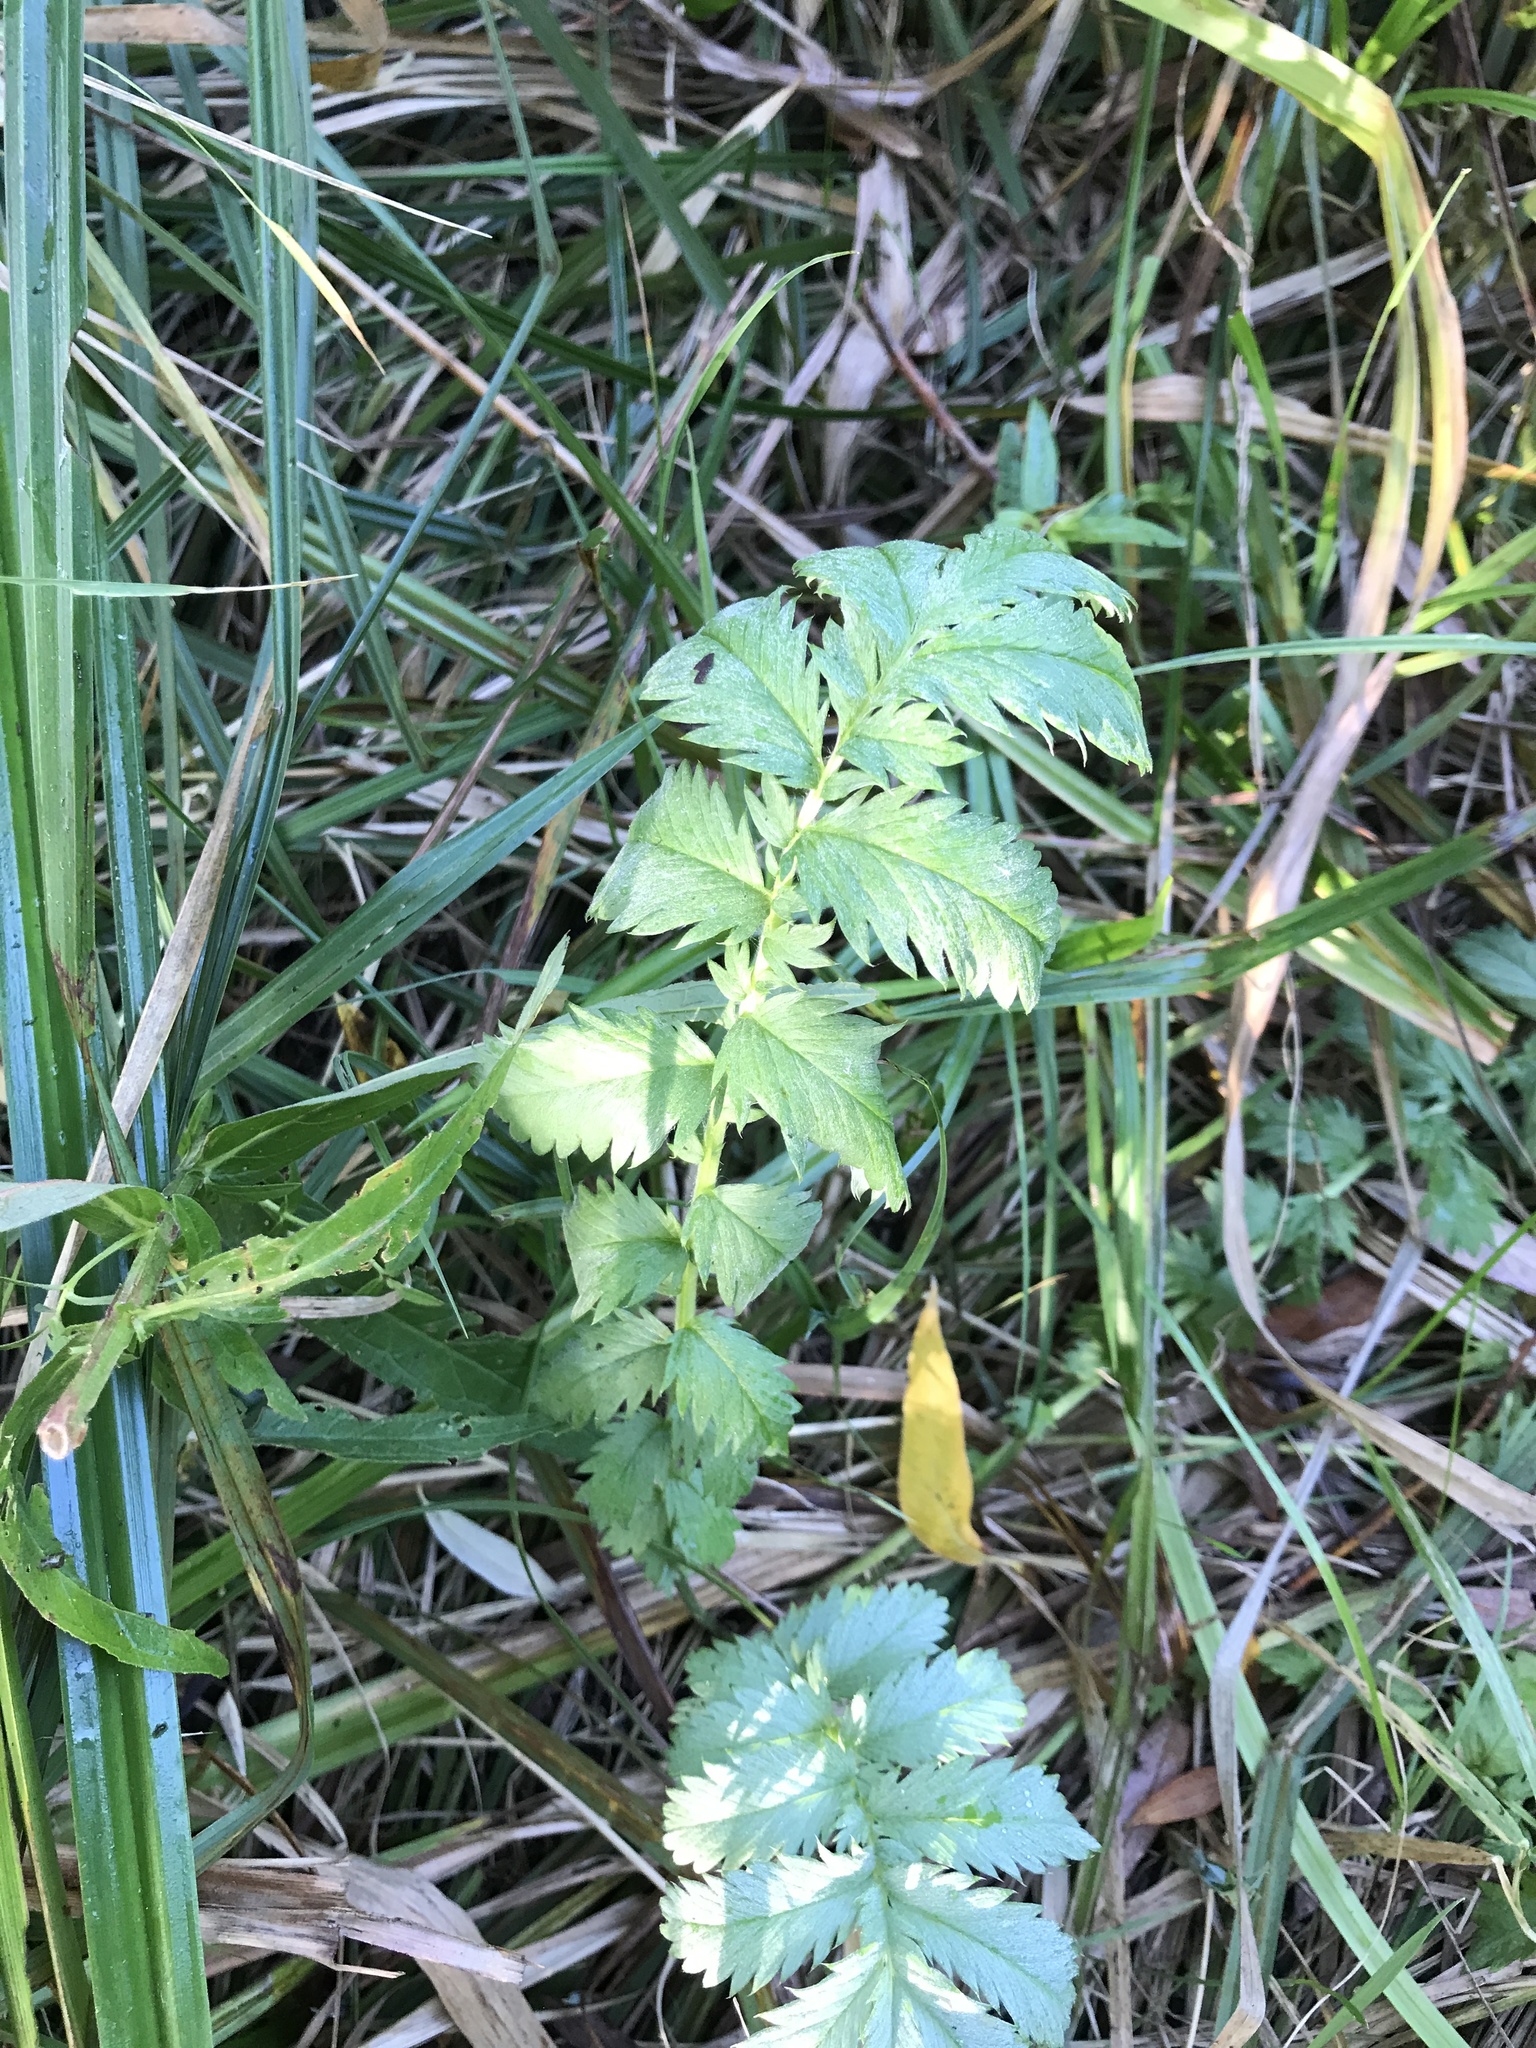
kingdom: Plantae
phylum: Tracheophyta
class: Magnoliopsida
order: Rosales
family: Rosaceae
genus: Argentina
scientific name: Argentina anserina
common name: Common silverweed
